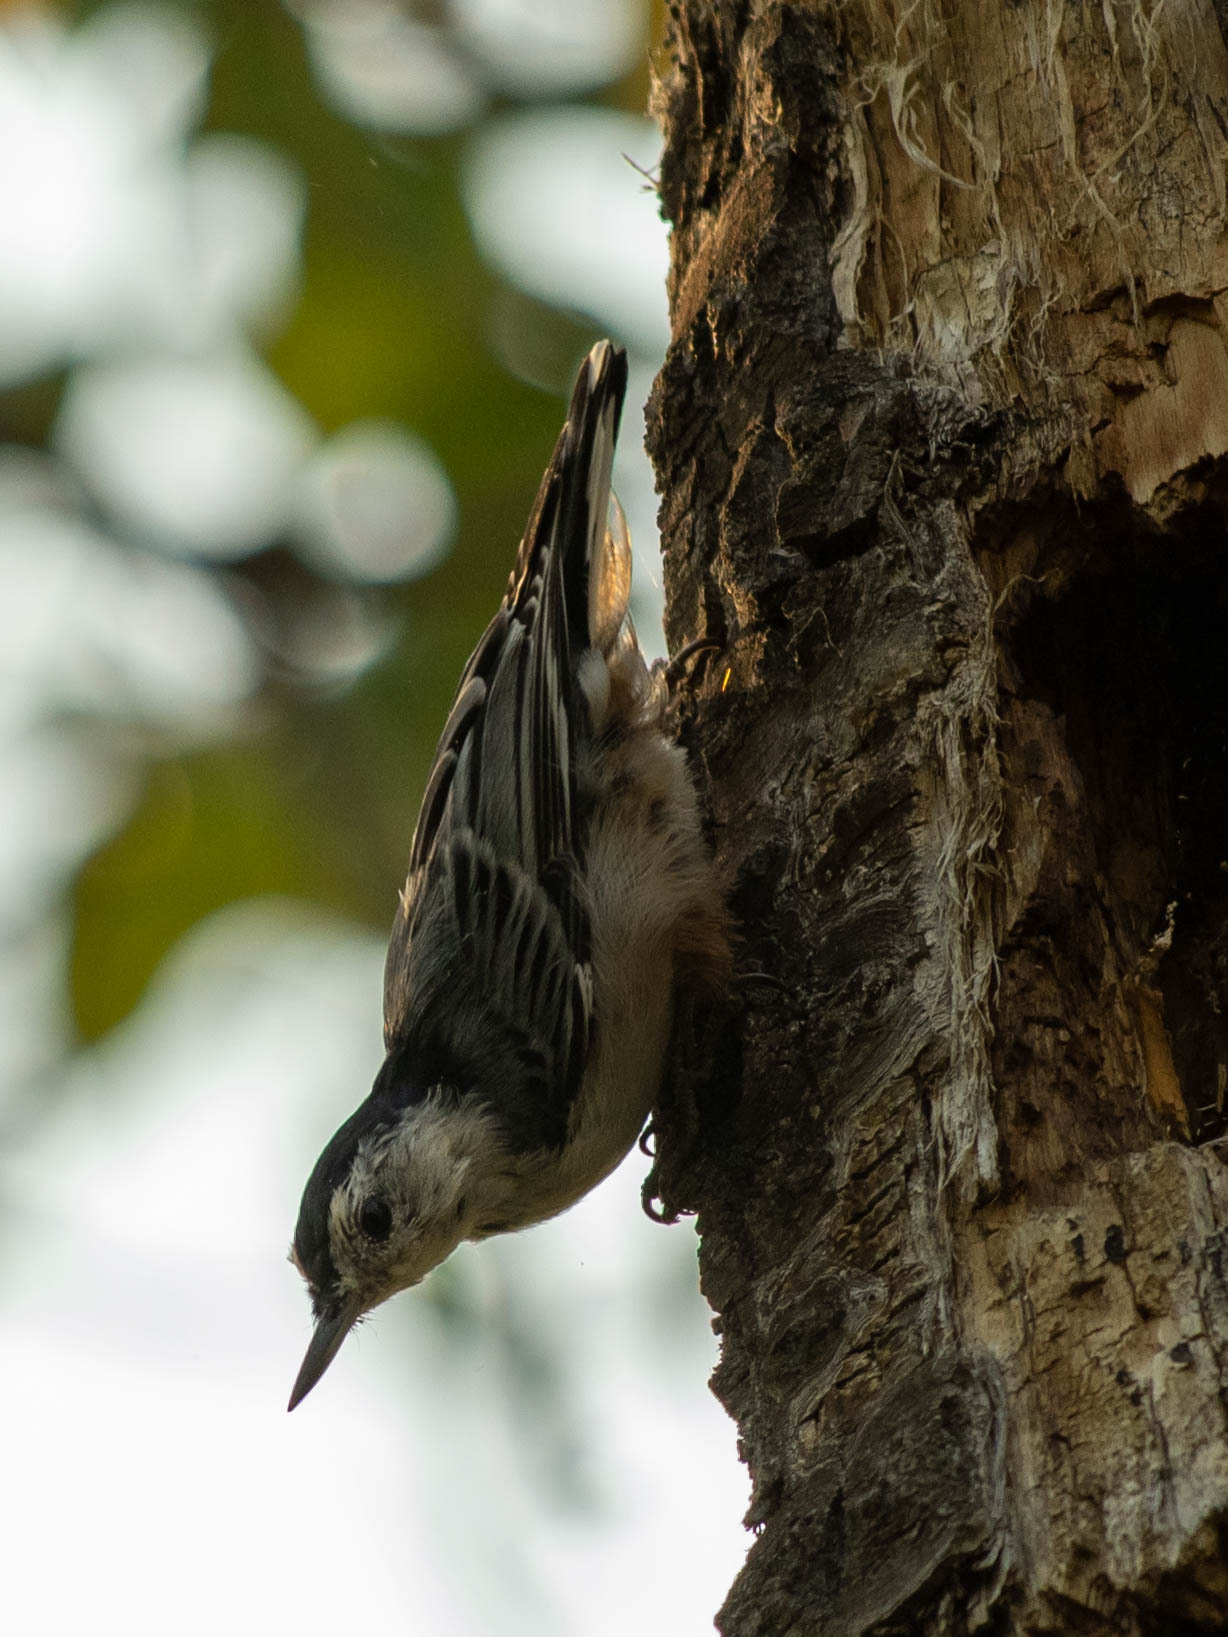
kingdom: Animalia
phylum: Chordata
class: Aves
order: Passeriformes
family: Sittidae
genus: Sitta
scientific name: Sitta carolinensis
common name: White-breasted nuthatch
